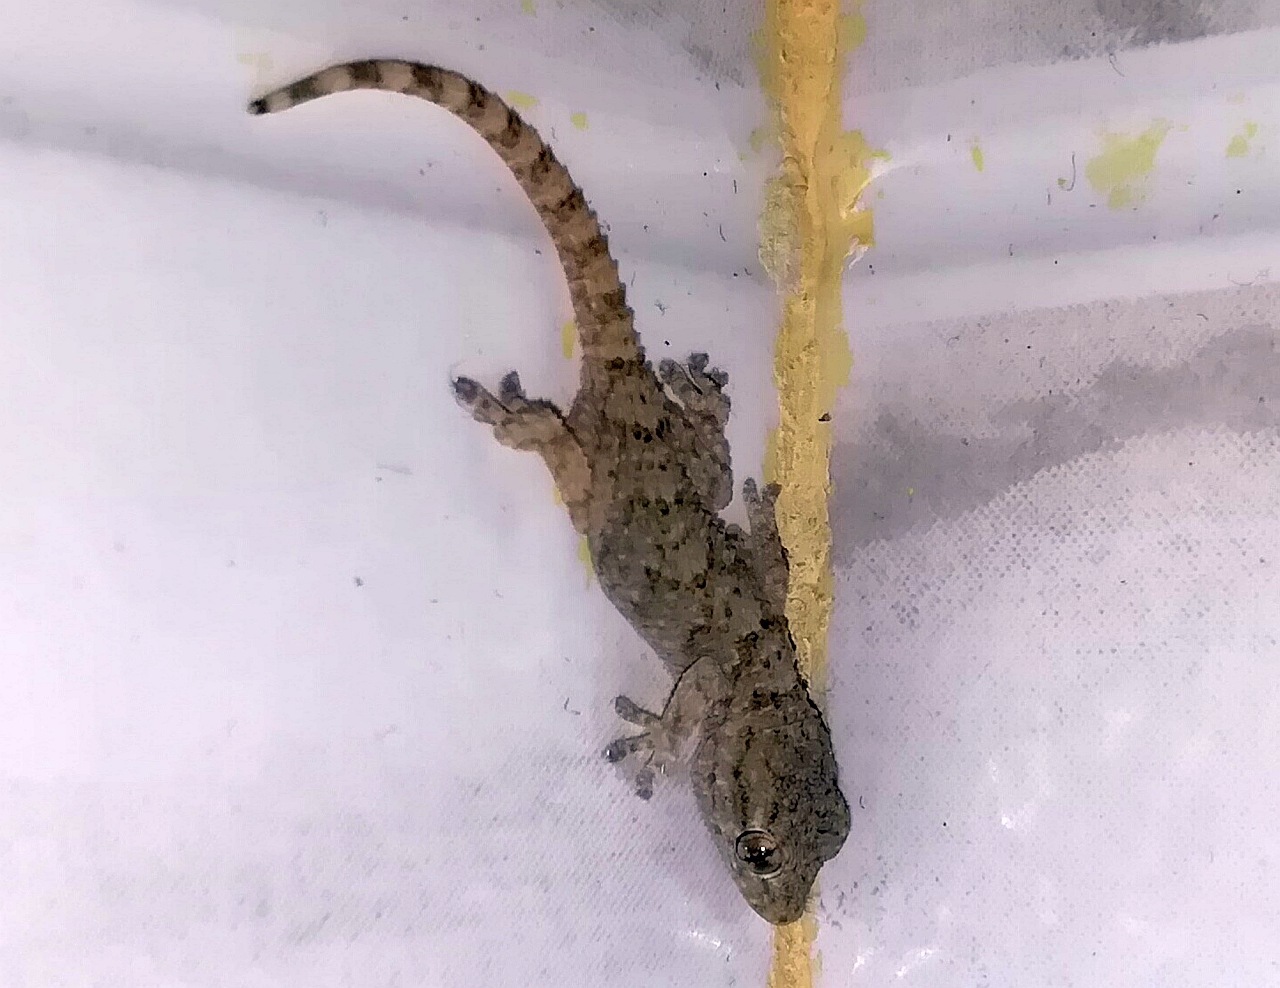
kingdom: Animalia
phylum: Chordata
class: Squamata
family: Phyllodactylidae
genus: Tarentola
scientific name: Tarentola mauritanica
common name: Moorish gecko
